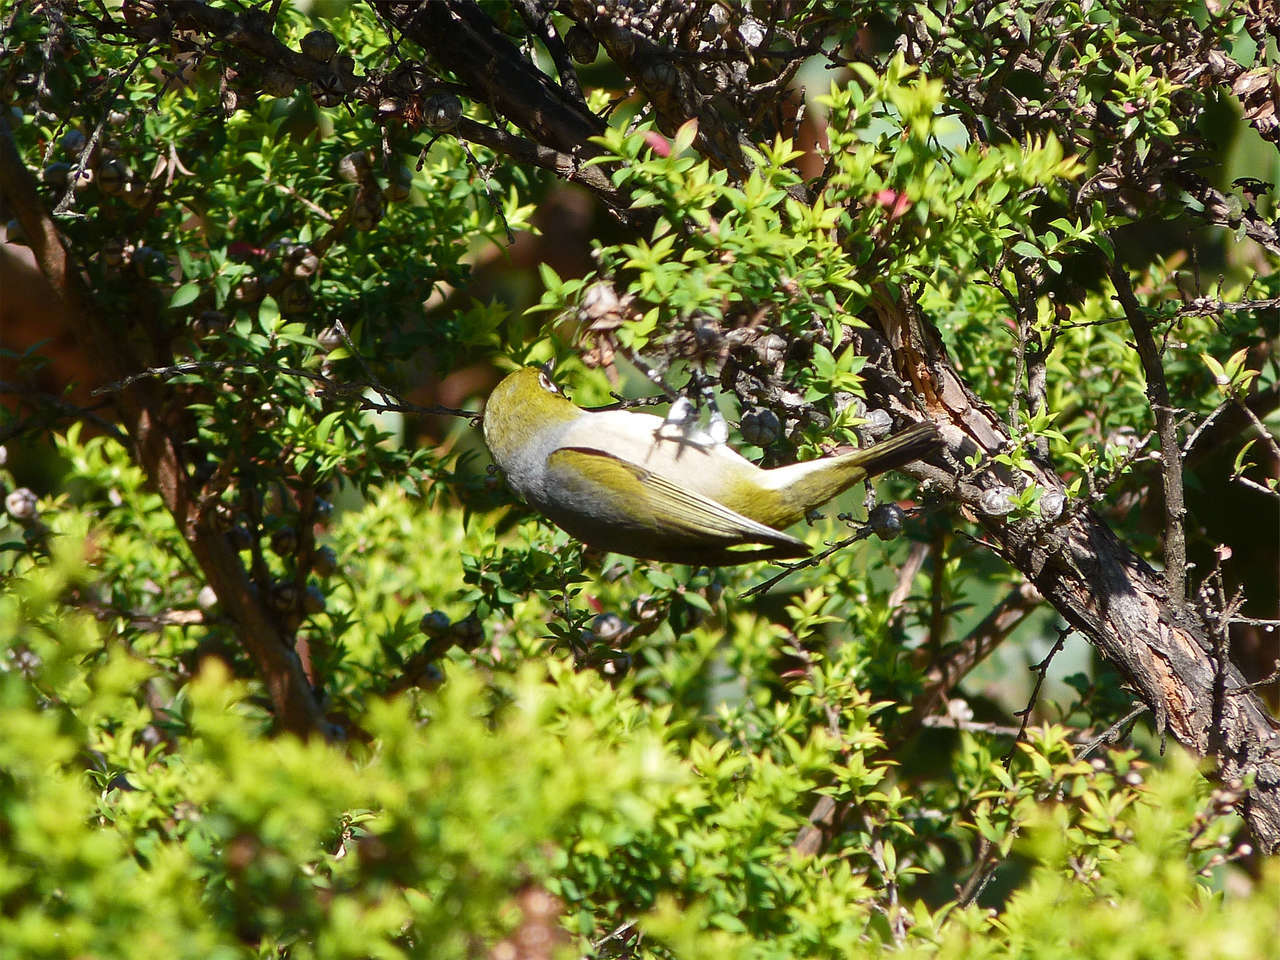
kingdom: Animalia
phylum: Chordata
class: Aves
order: Passeriformes
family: Zosteropidae
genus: Zosterops
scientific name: Zosterops lateralis
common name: Silvereye
